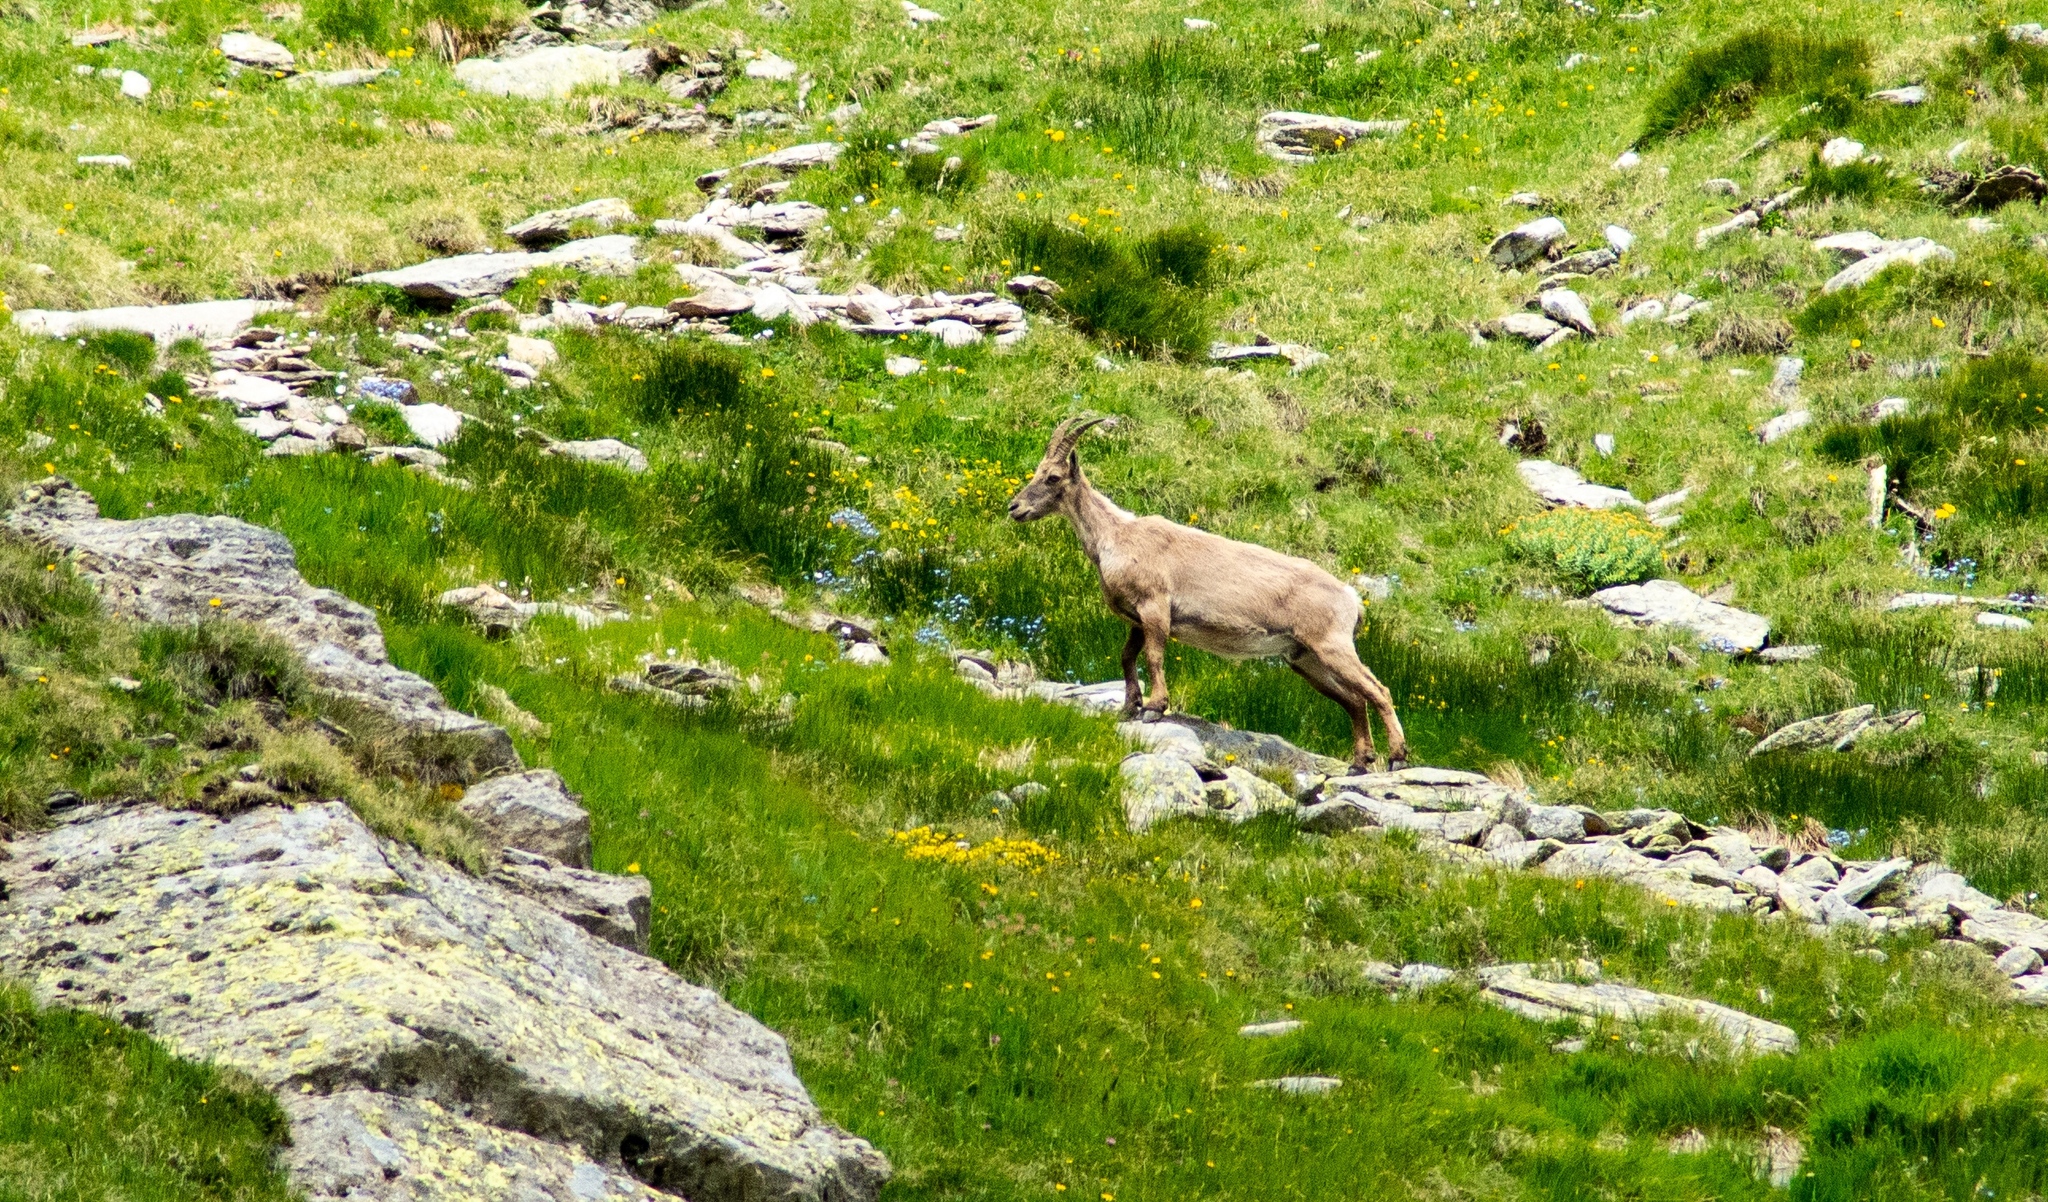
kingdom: Animalia
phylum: Chordata
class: Mammalia
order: Artiodactyla
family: Bovidae
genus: Capra
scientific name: Capra ibex
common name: Alpine ibex
